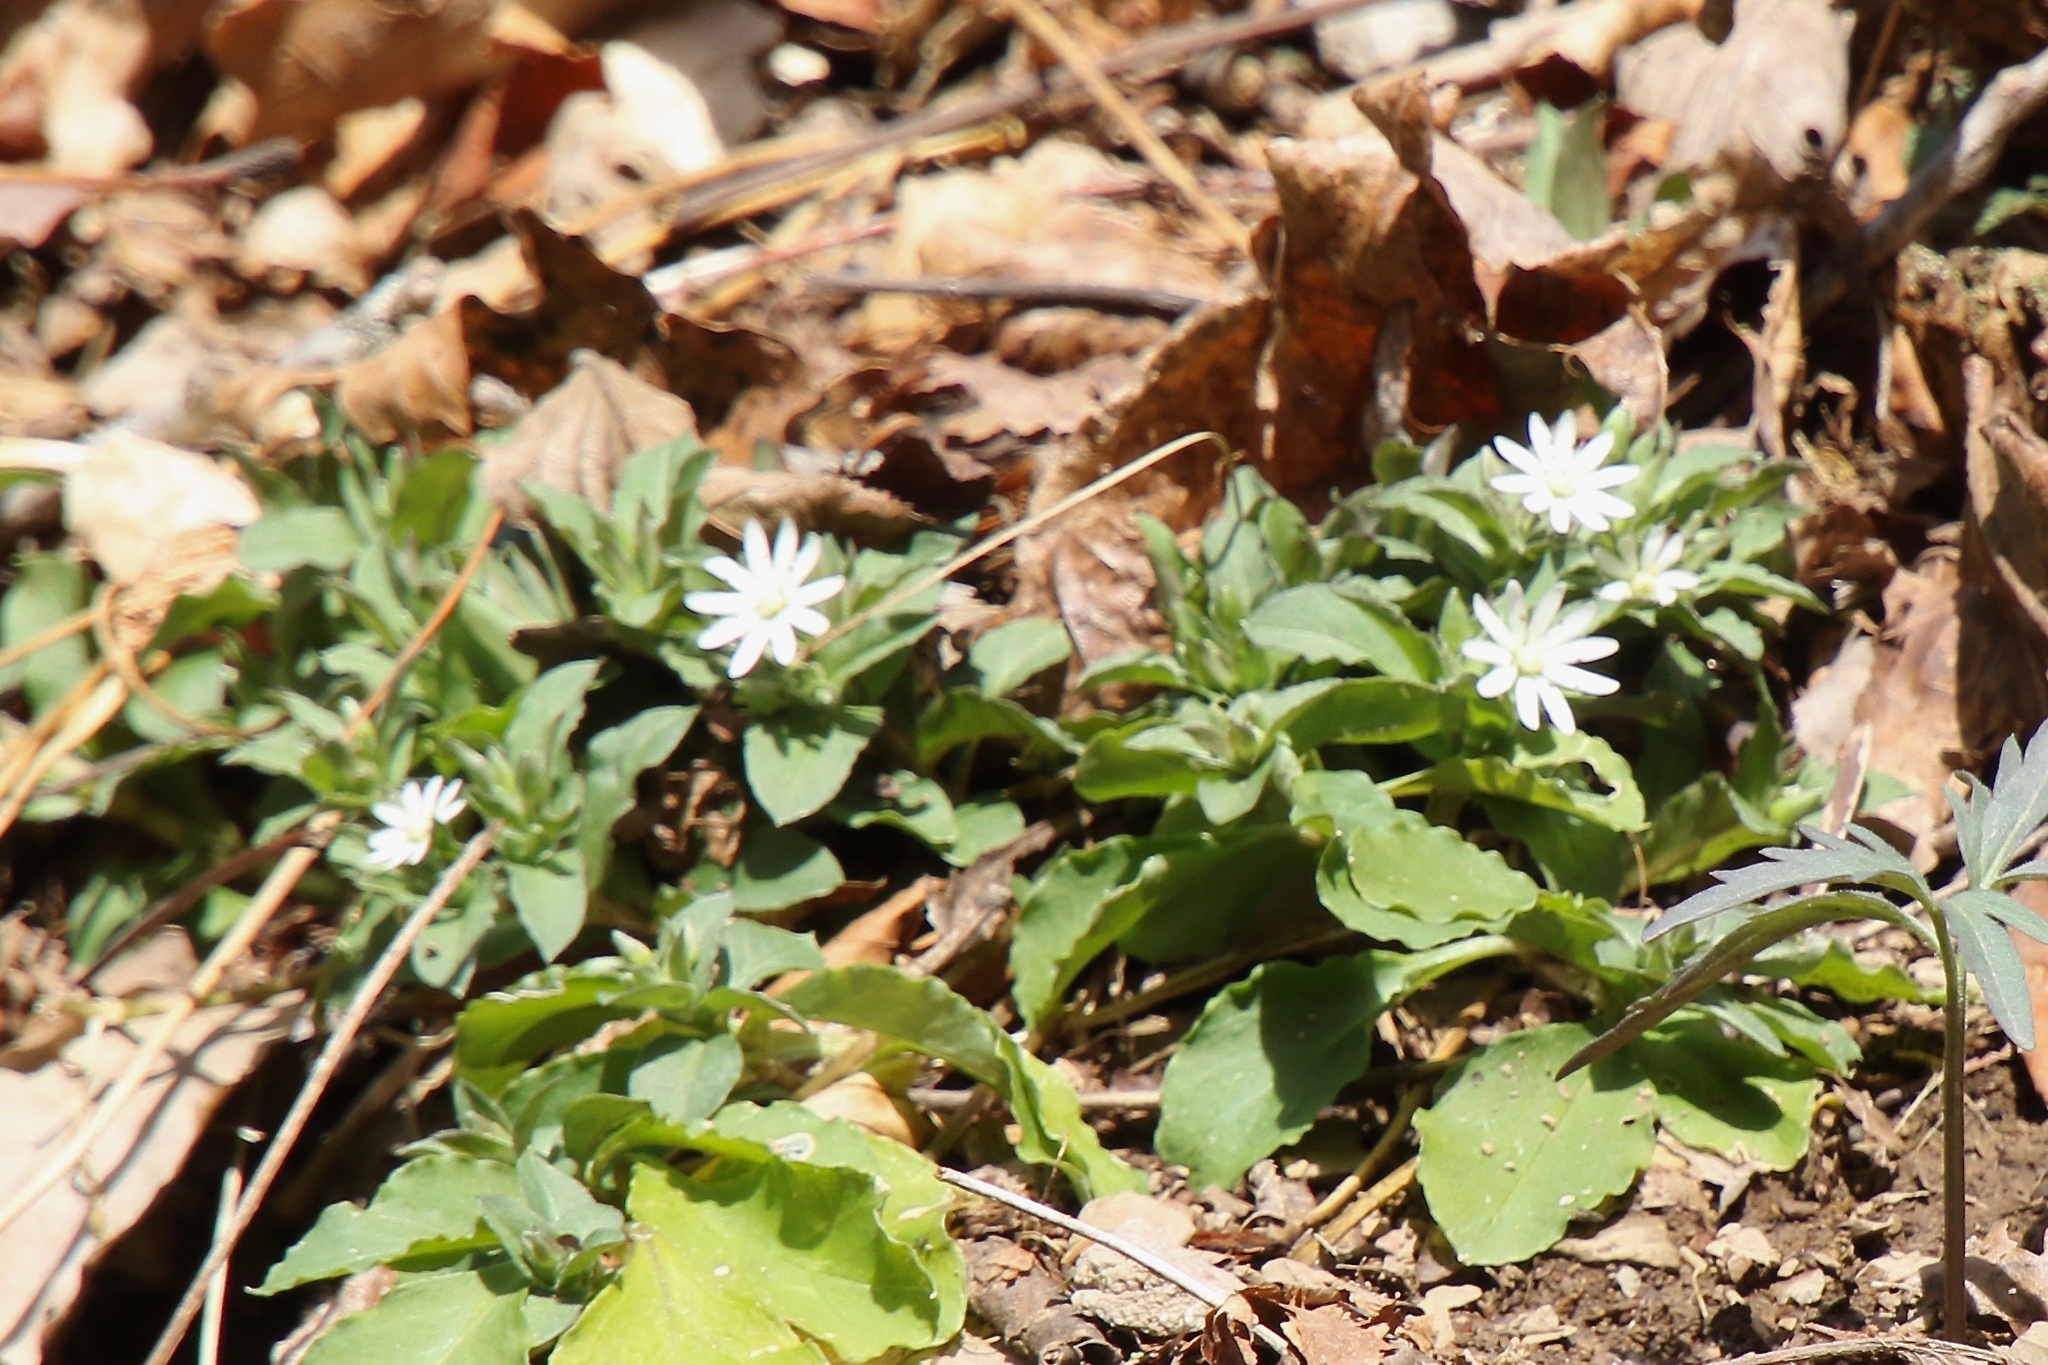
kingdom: Plantae
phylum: Tracheophyta
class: Magnoliopsida
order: Caryophyllales
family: Caryophyllaceae
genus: Stellaria
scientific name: Stellaria pubera
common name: Star chickweed
